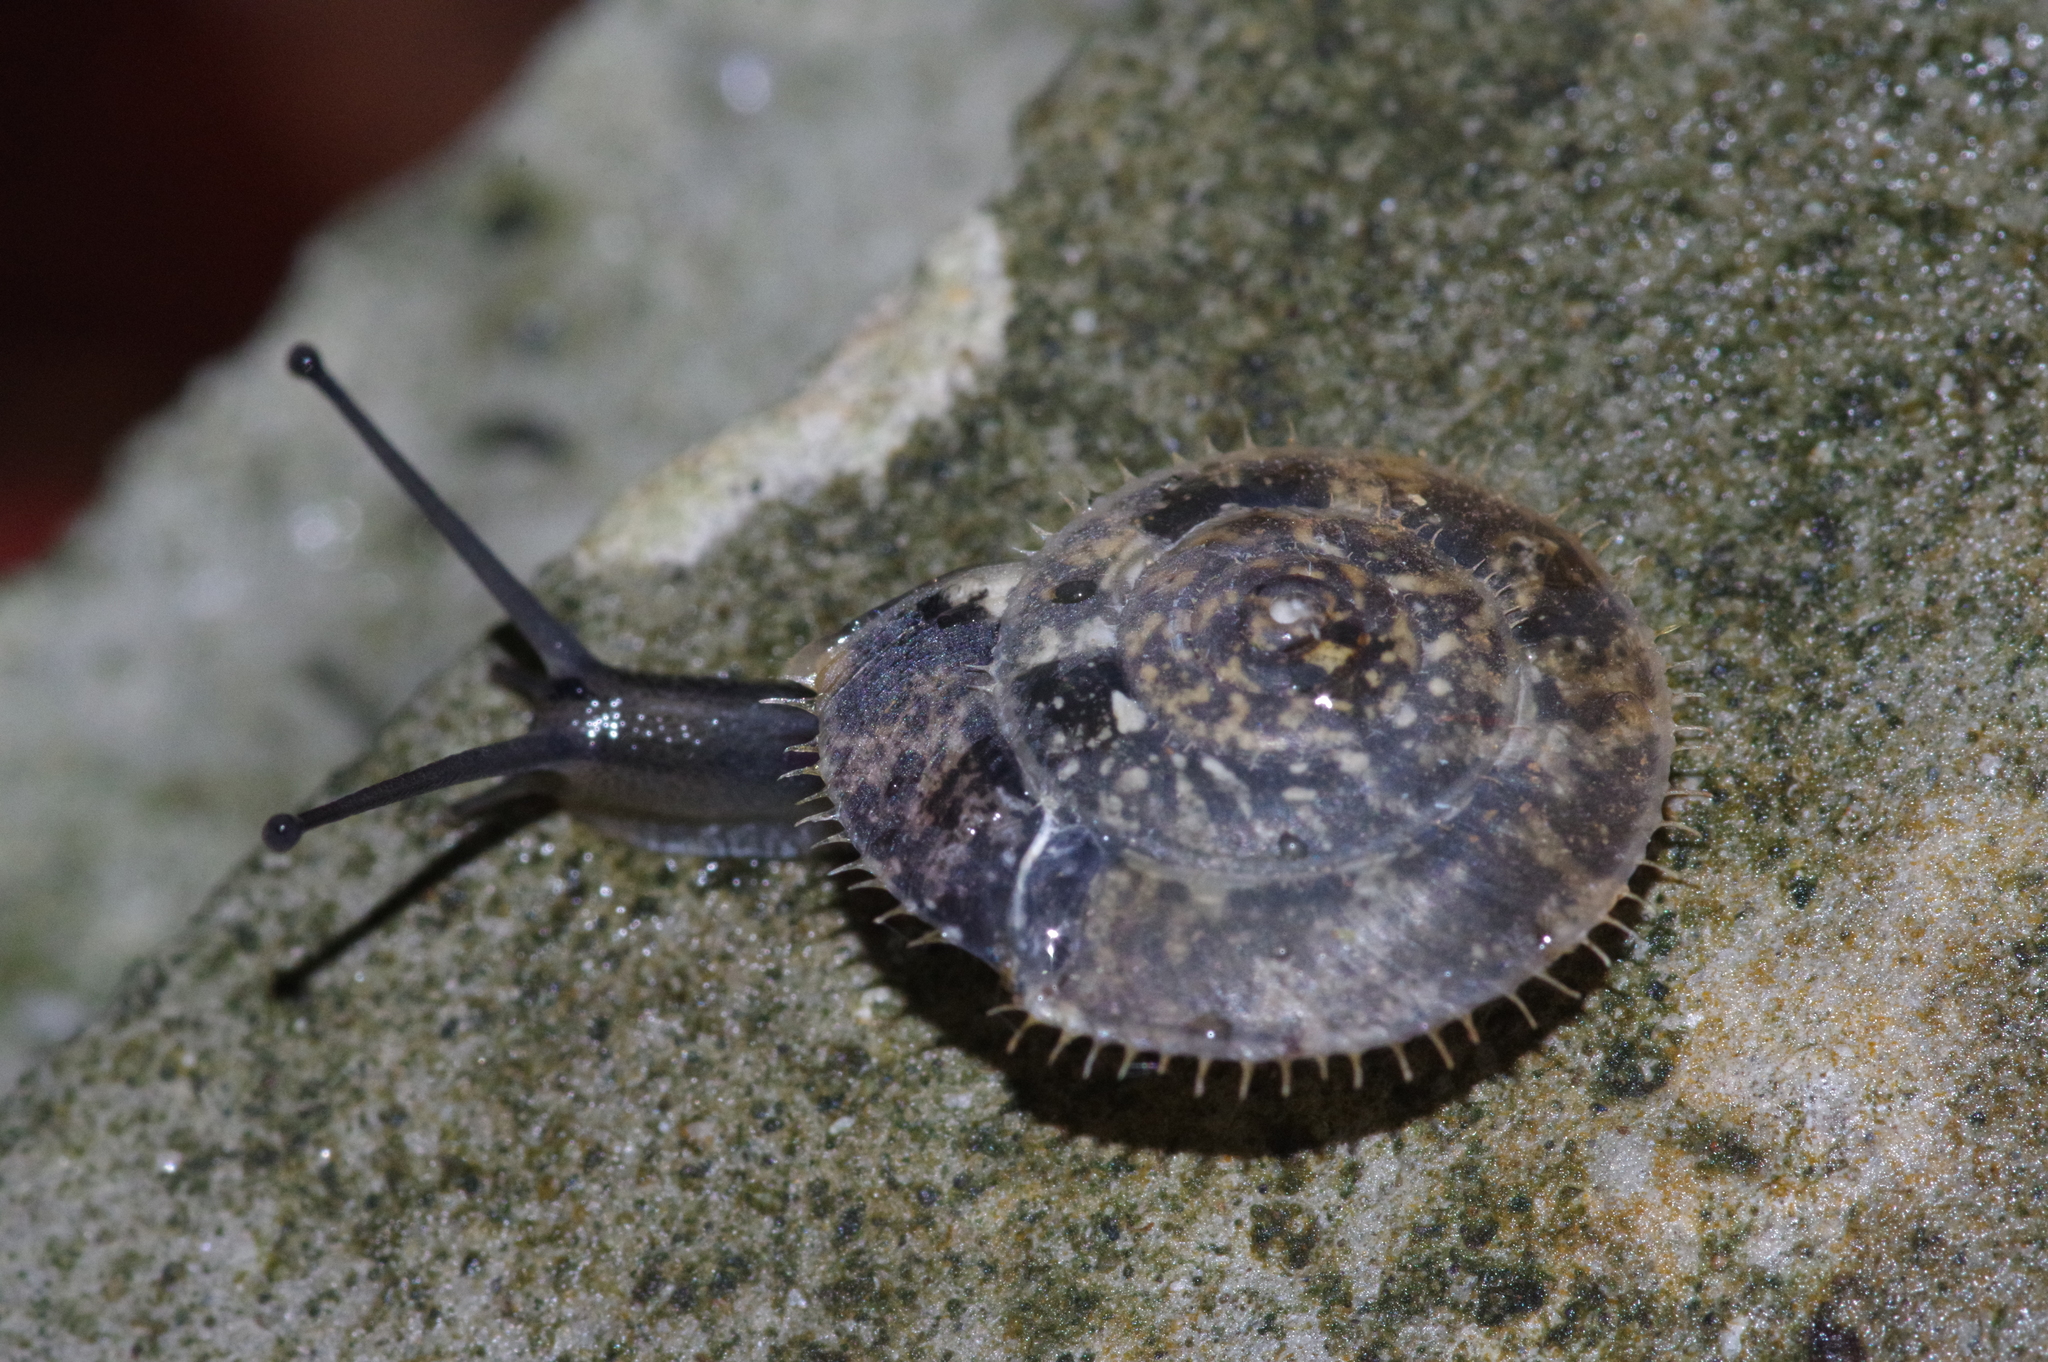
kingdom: Animalia
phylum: Mollusca
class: Gastropoda
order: Stylommatophora
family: Camaenidae
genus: Plectotropis
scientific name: Plectotropis elegantissima
